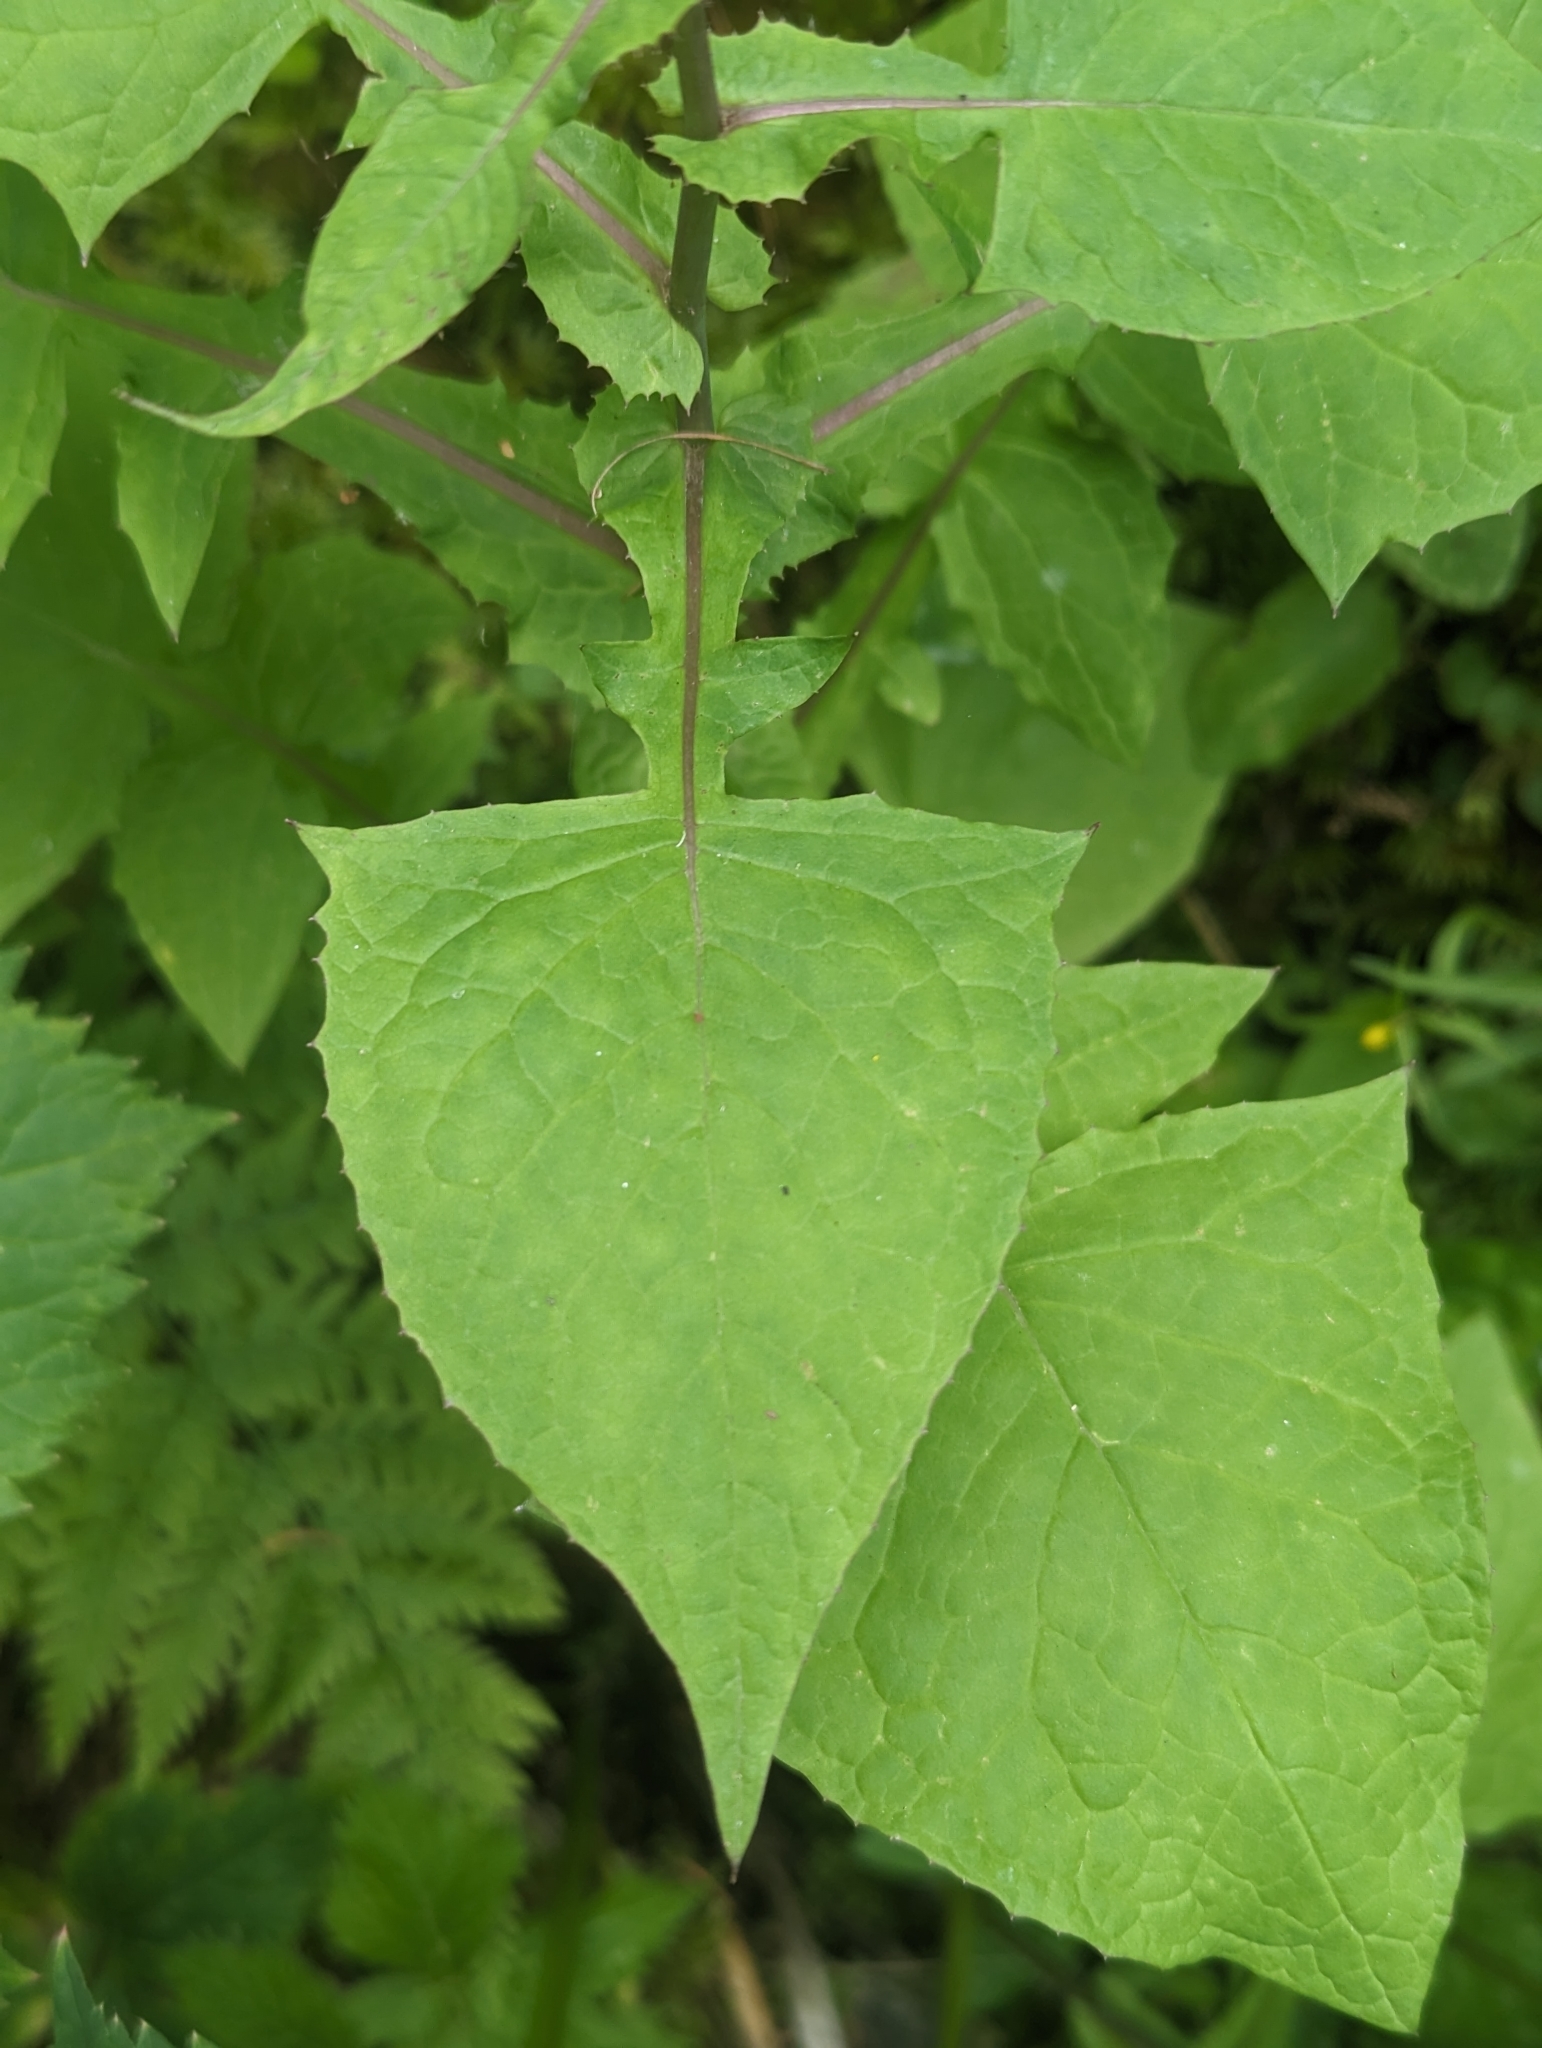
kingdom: Plantae
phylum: Tracheophyta
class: Magnoliopsida
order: Asterales
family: Asteraceae
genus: Cicerbita
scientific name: Cicerbita alpina
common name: Alpine blue-sow-thistle
